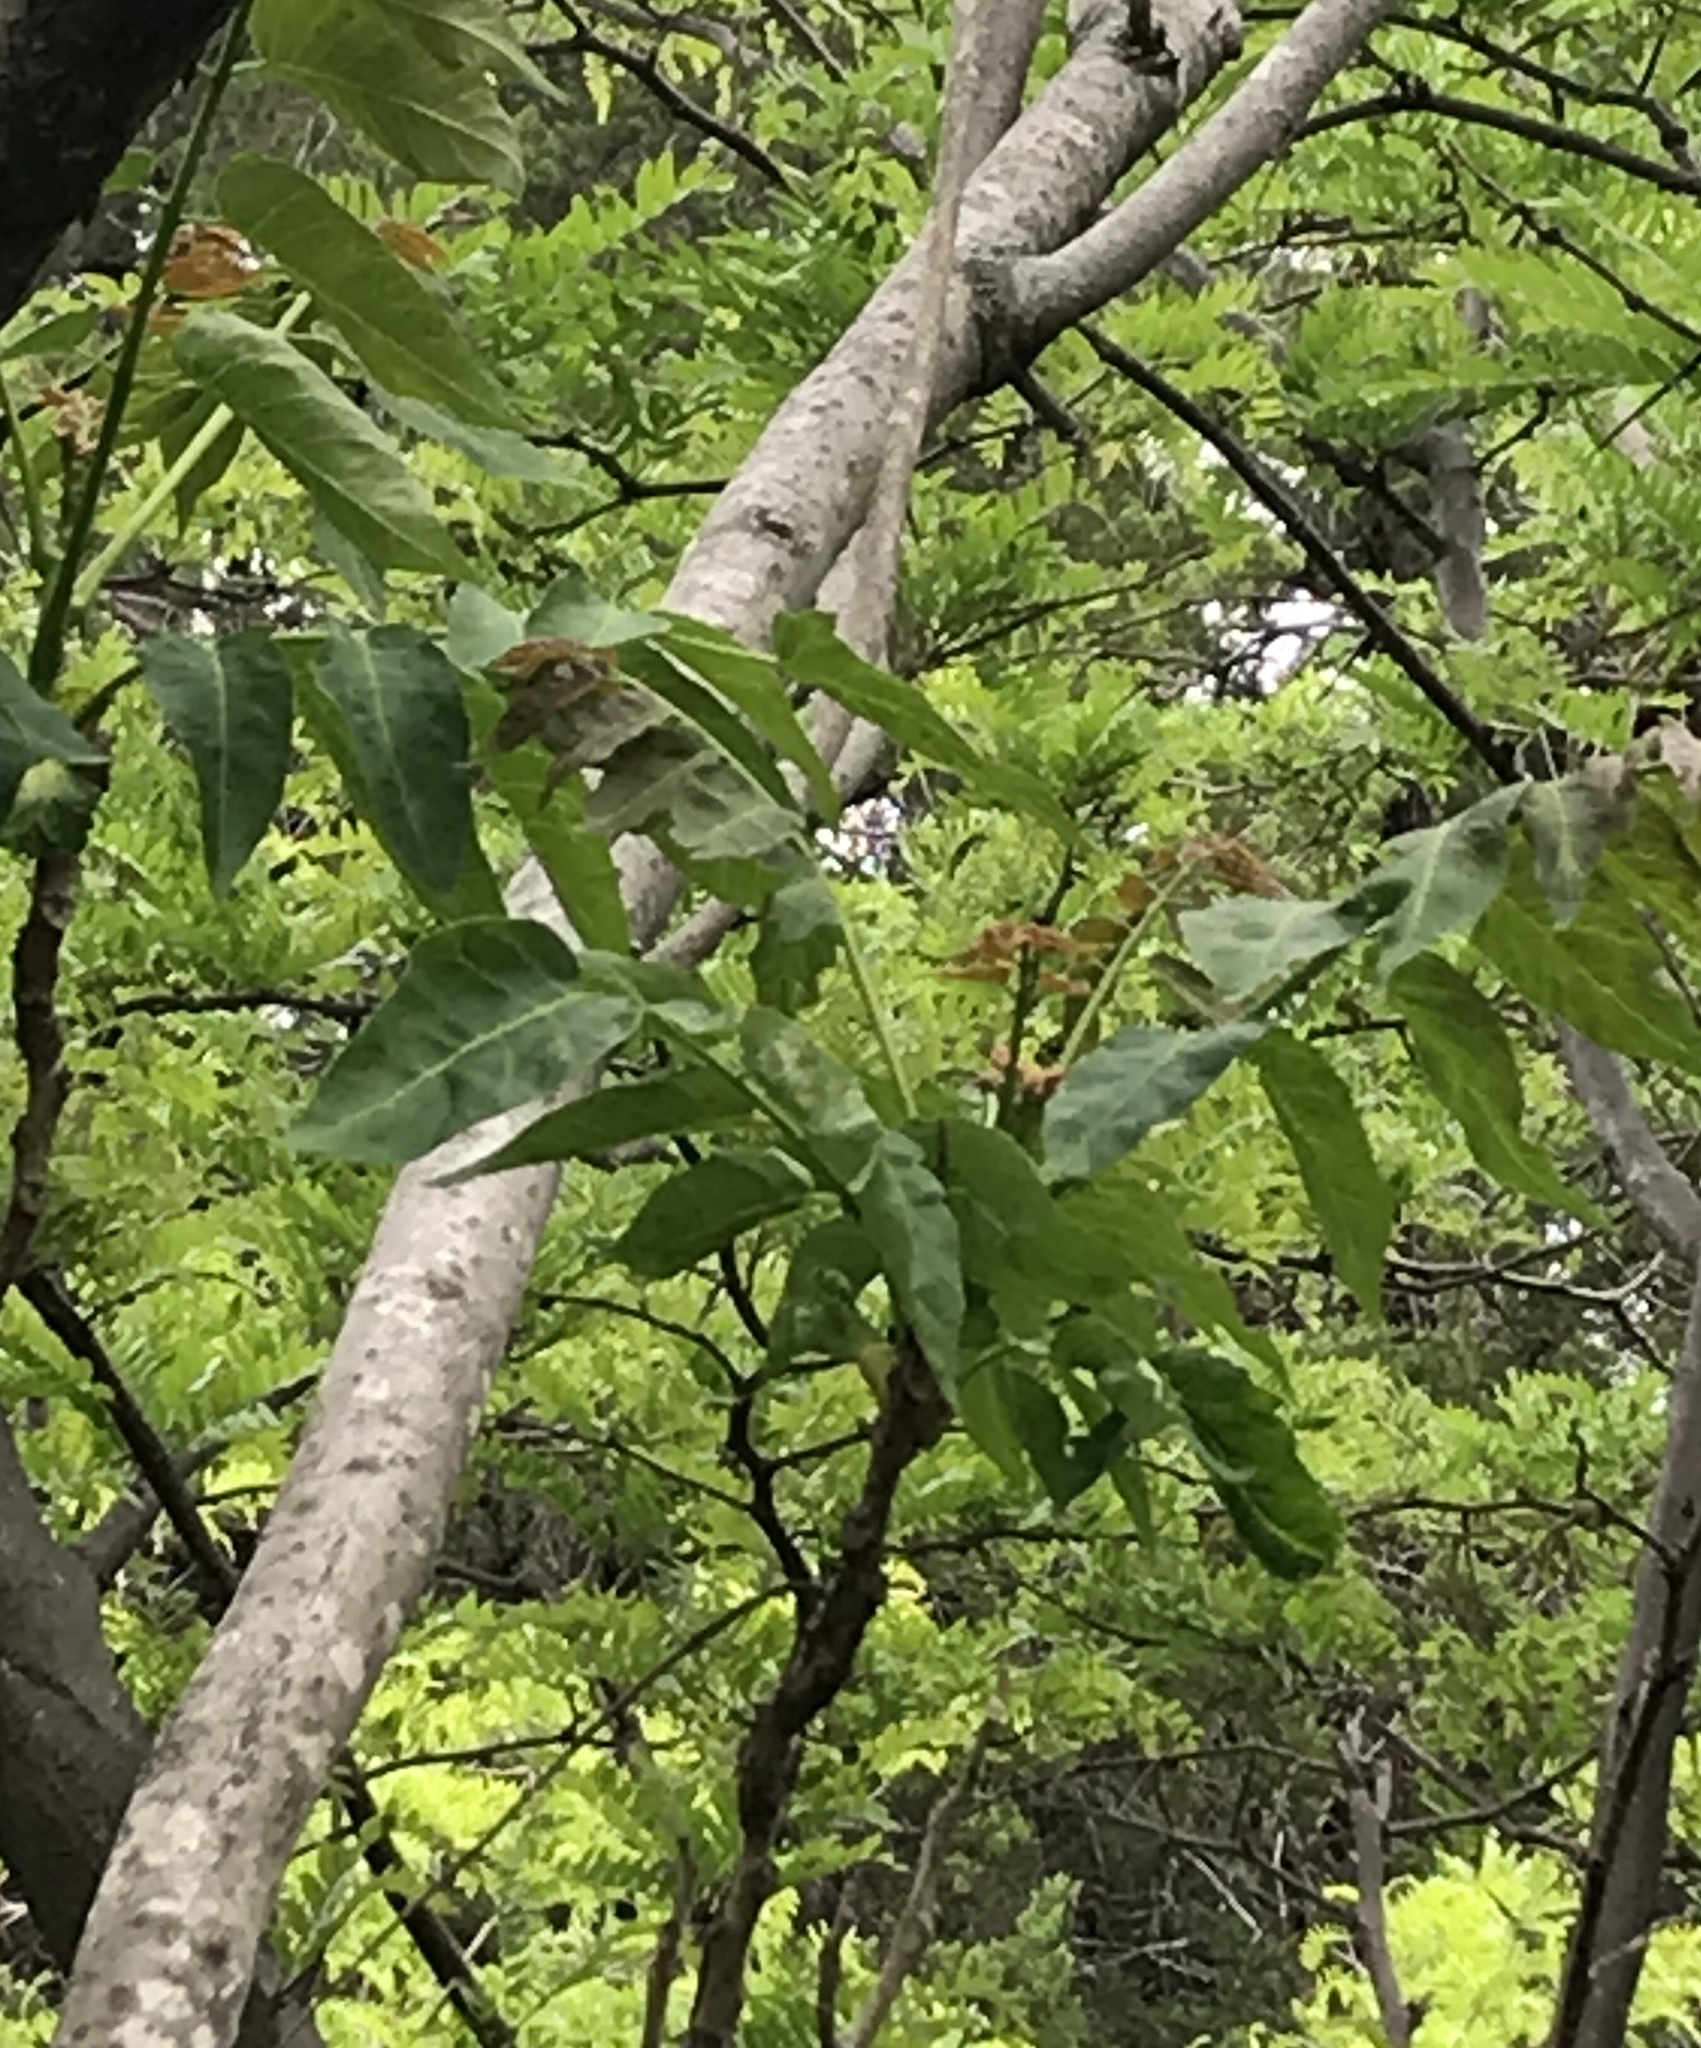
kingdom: Plantae
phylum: Tracheophyta
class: Magnoliopsida
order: Sapindales
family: Simaroubaceae
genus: Ailanthus
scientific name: Ailanthus altissima
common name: Tree-of-heaven
